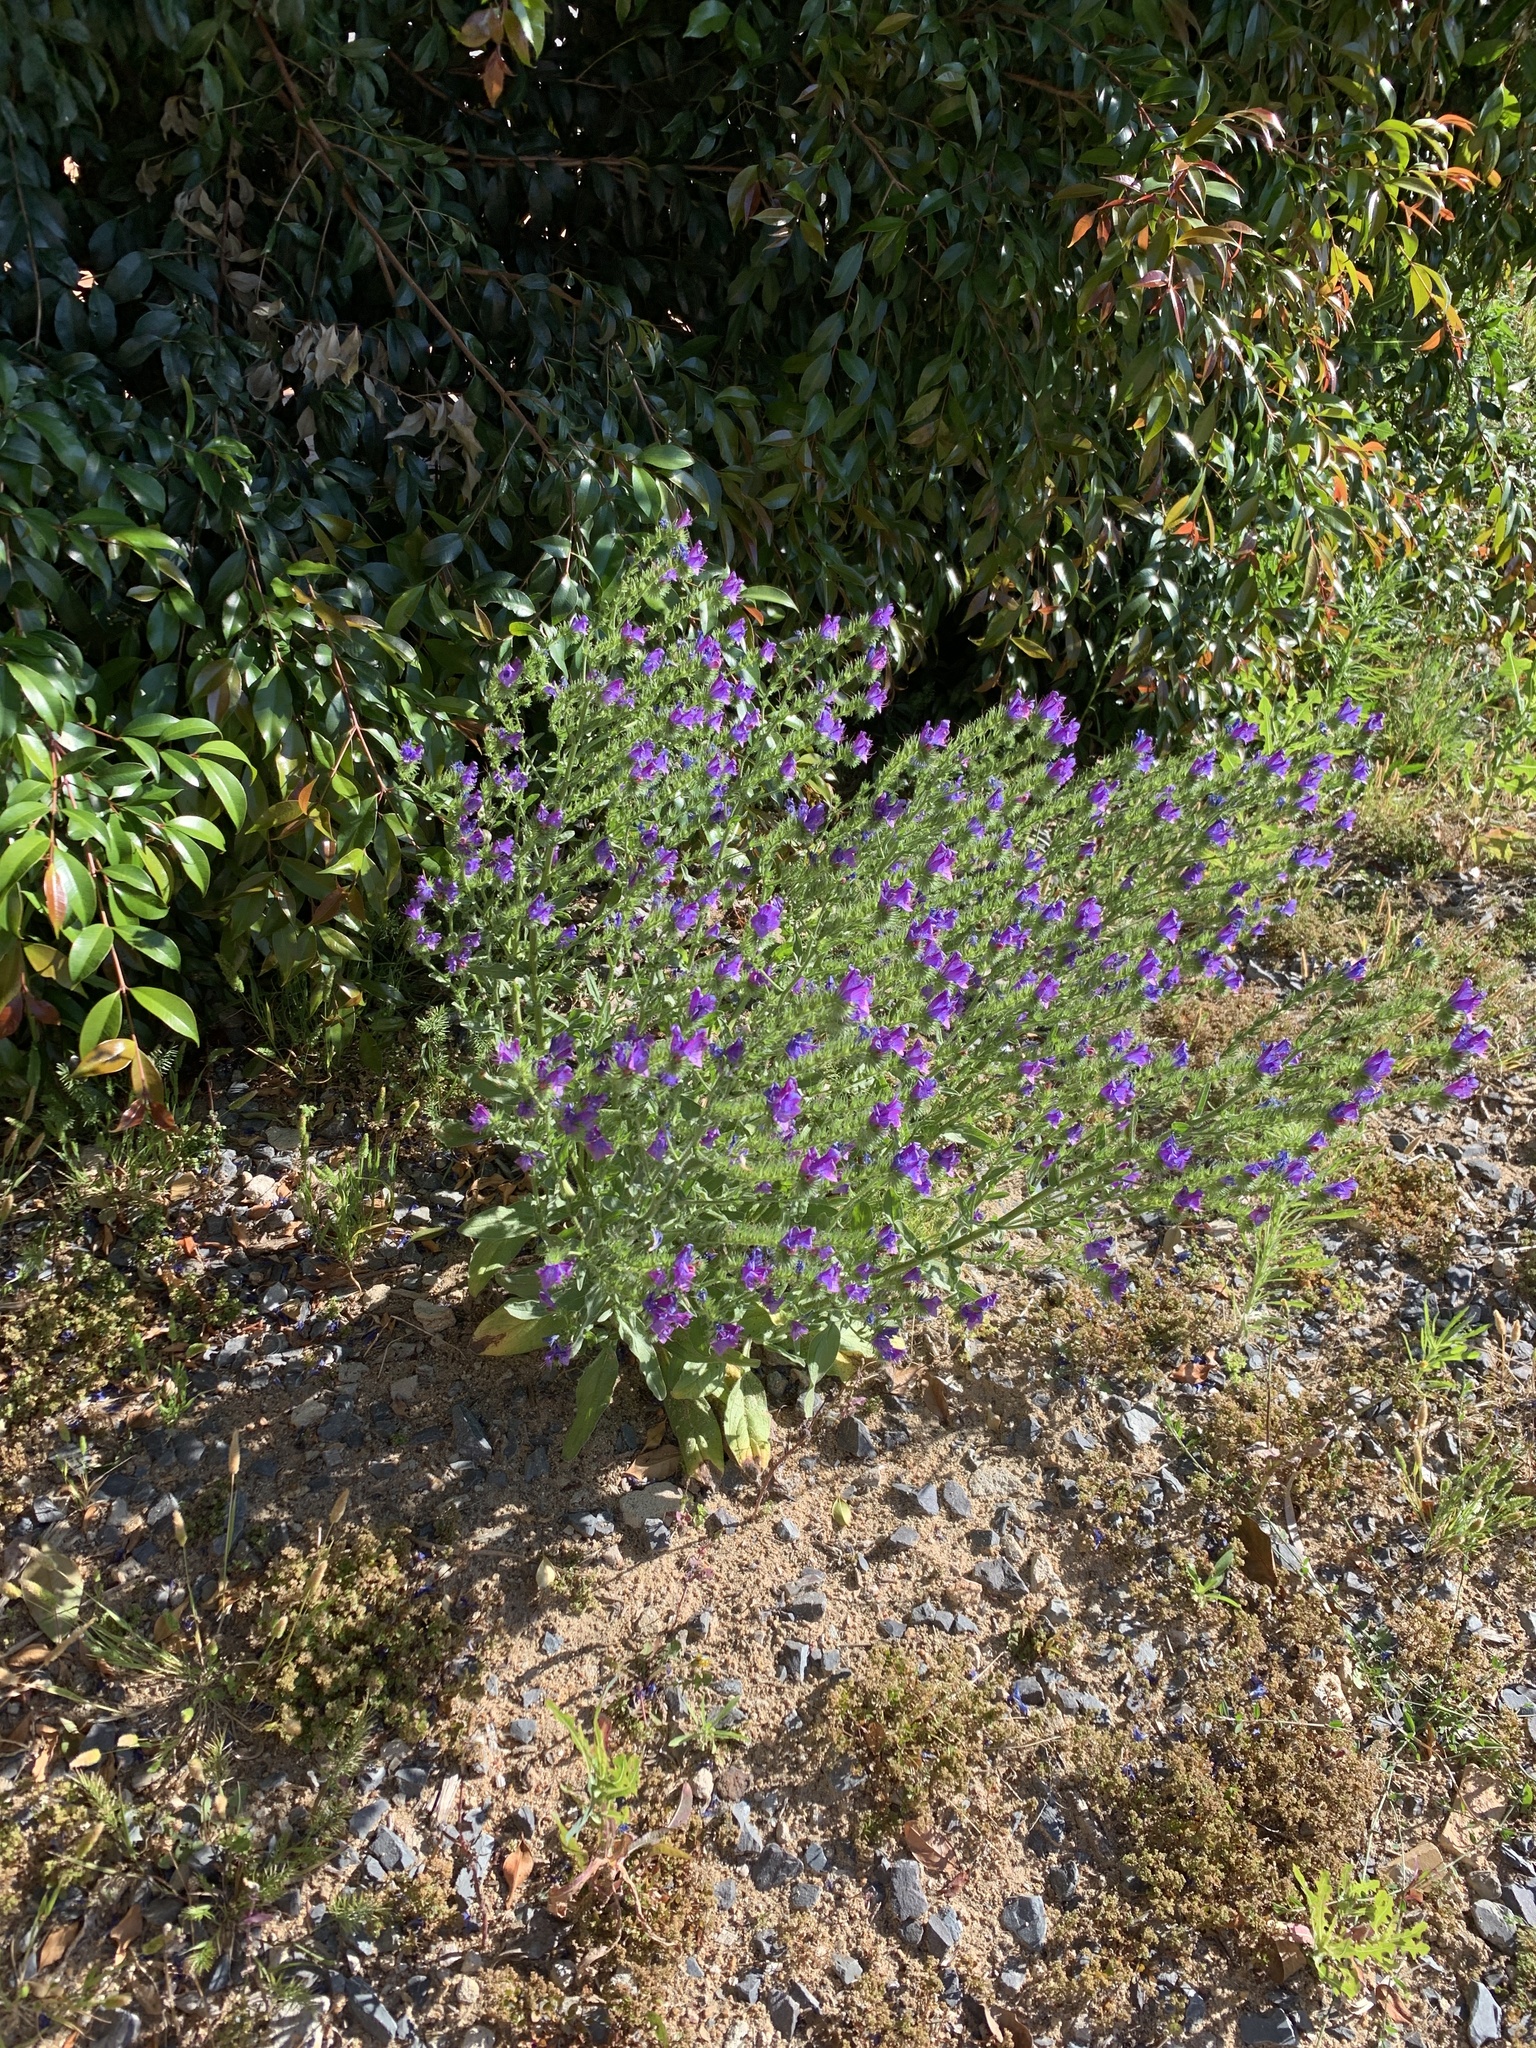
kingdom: Plantae
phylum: Tracheophyta
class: Magnoliopsida
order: Boraginales
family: Boraginaceae
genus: Echium
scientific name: Echium plantagineum
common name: Purple viper's-bugloss
